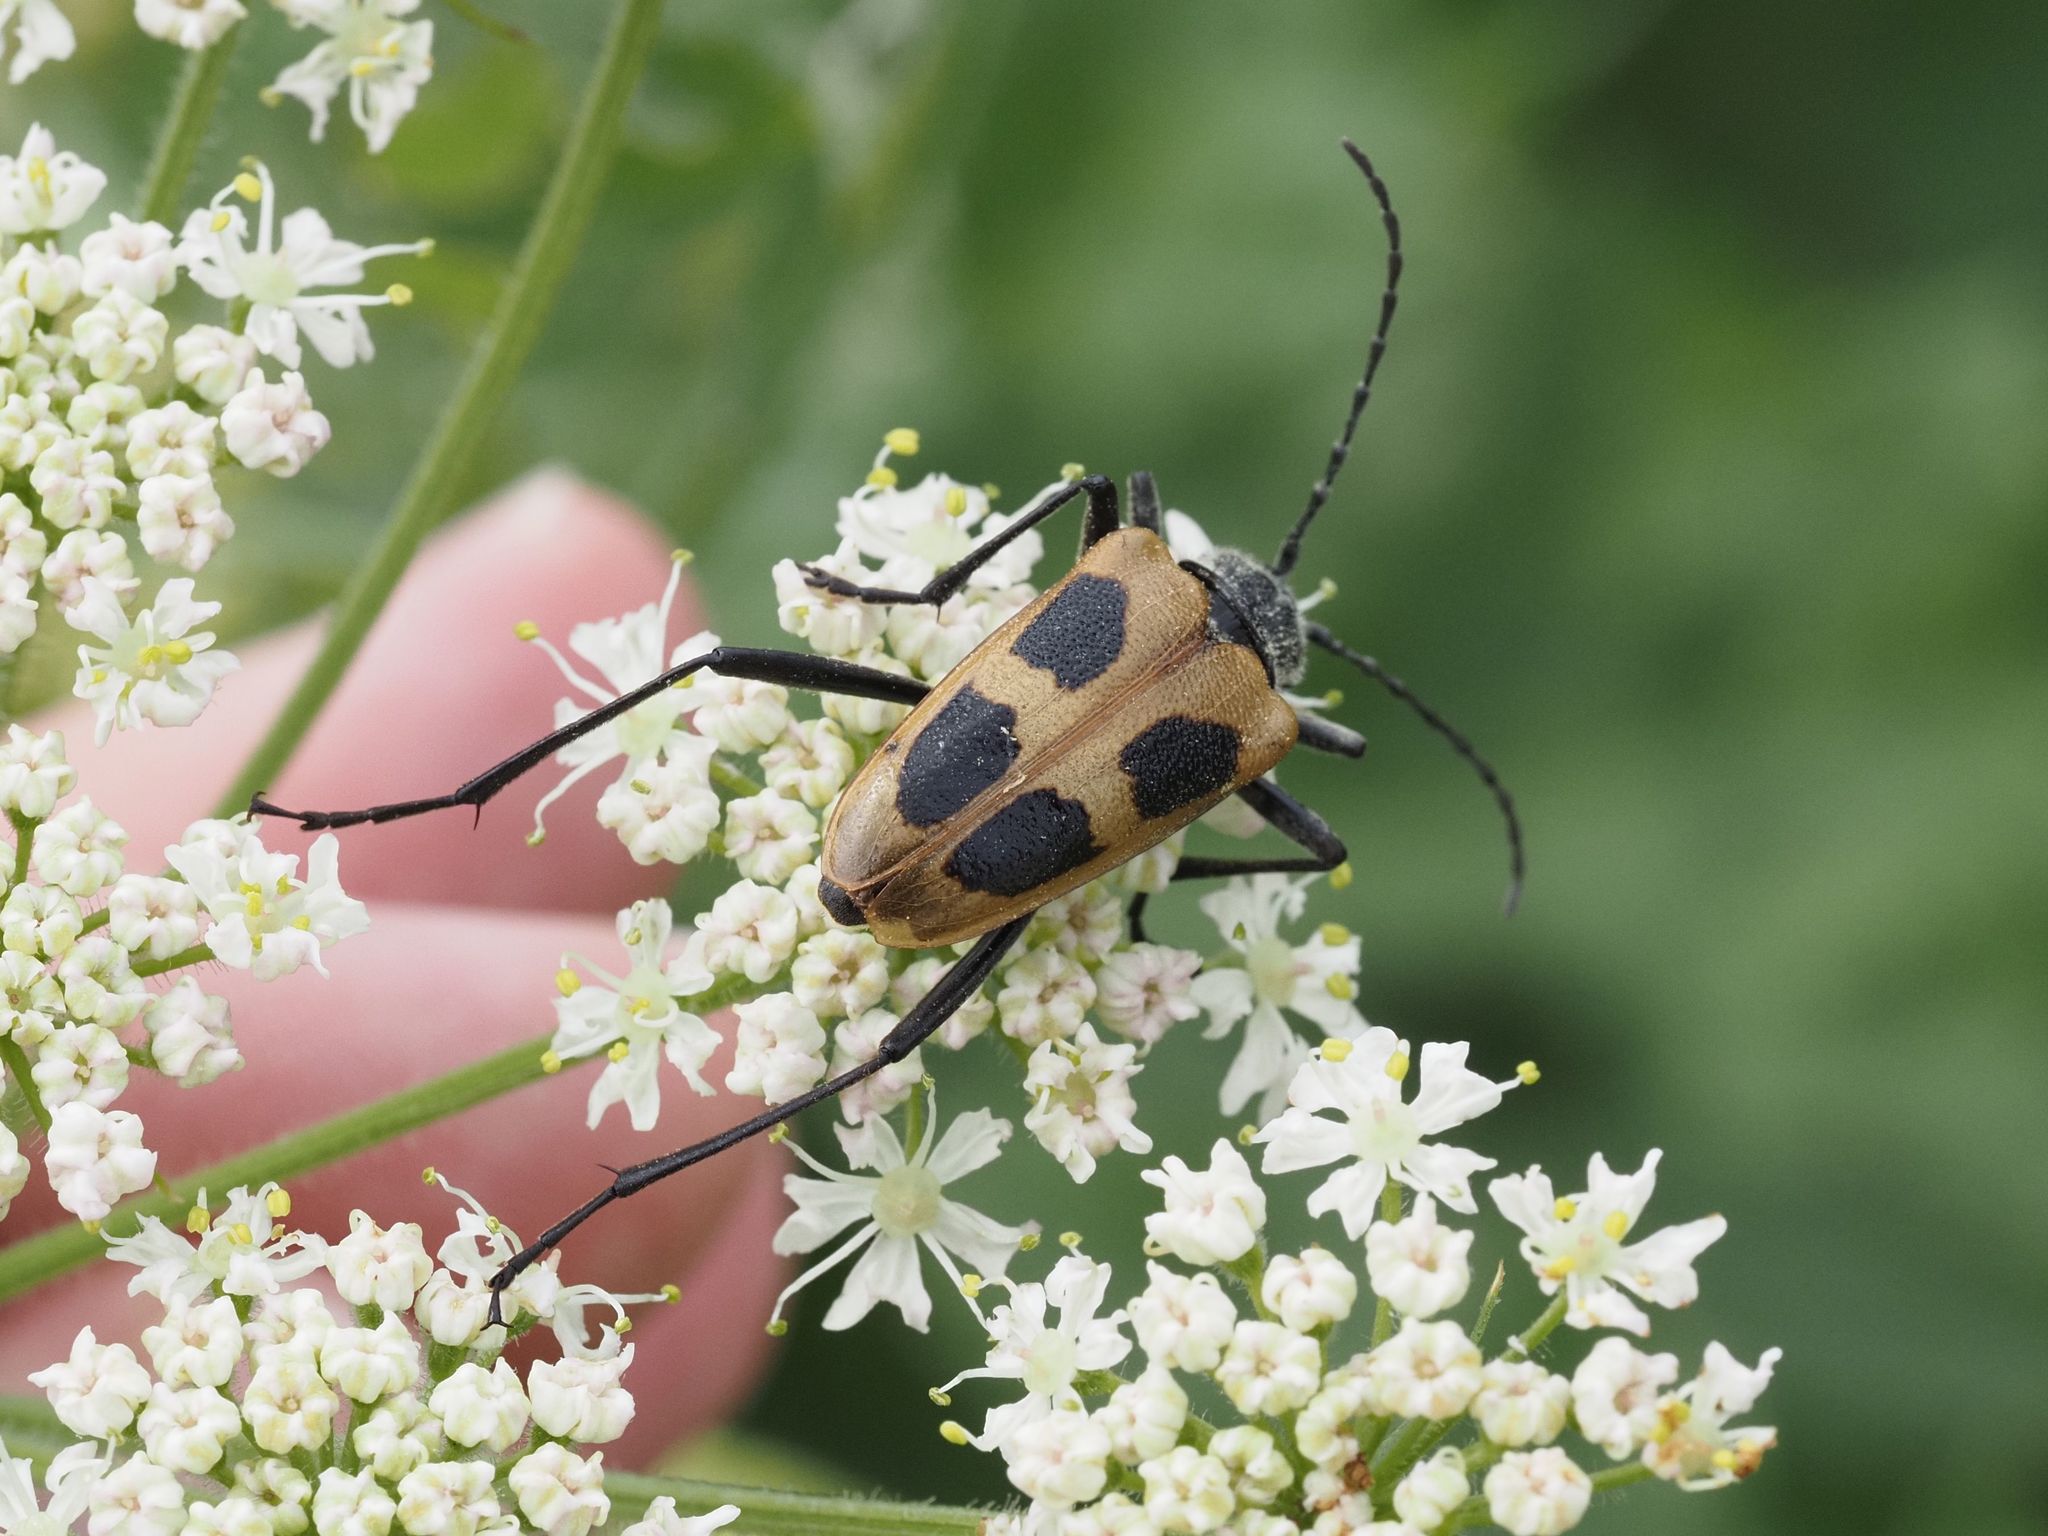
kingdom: Animalia
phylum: Arthropoda
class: Insecta
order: Coleoptera
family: Cerambycidae
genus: Pachyta
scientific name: Pachyta quadrimaculata
